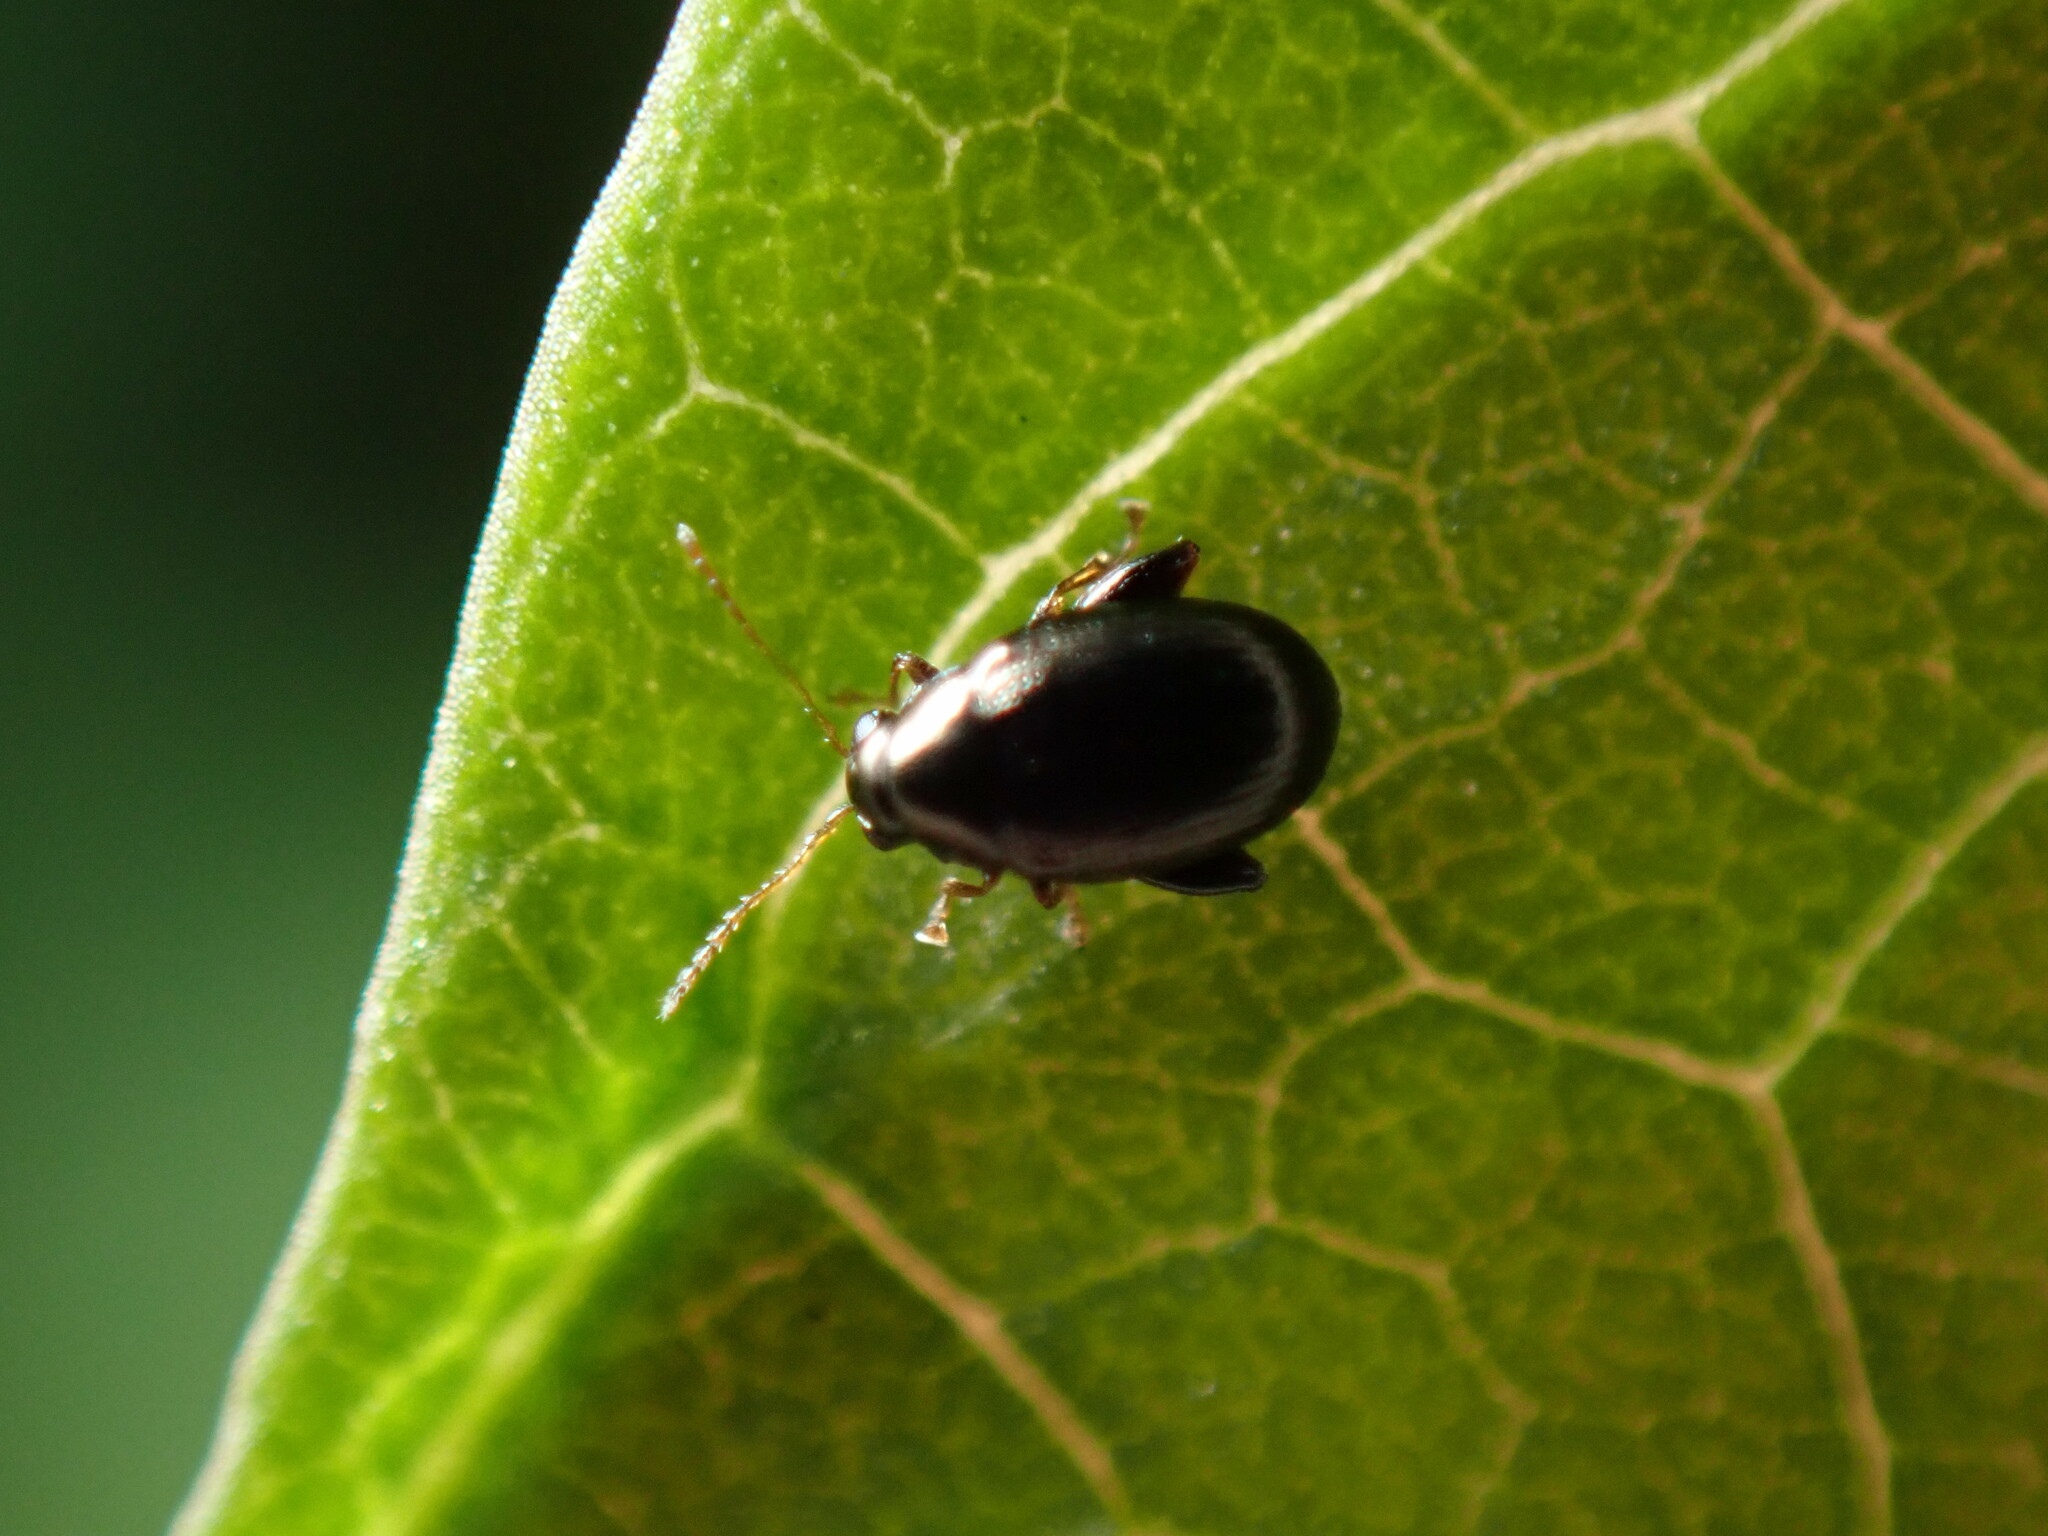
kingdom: Animalia
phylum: Arthropoda
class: Insecta
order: Coleoptera
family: Chrysomelidae
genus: Dibolia
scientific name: Dibolia borealis
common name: Northern plantain flea beetle
